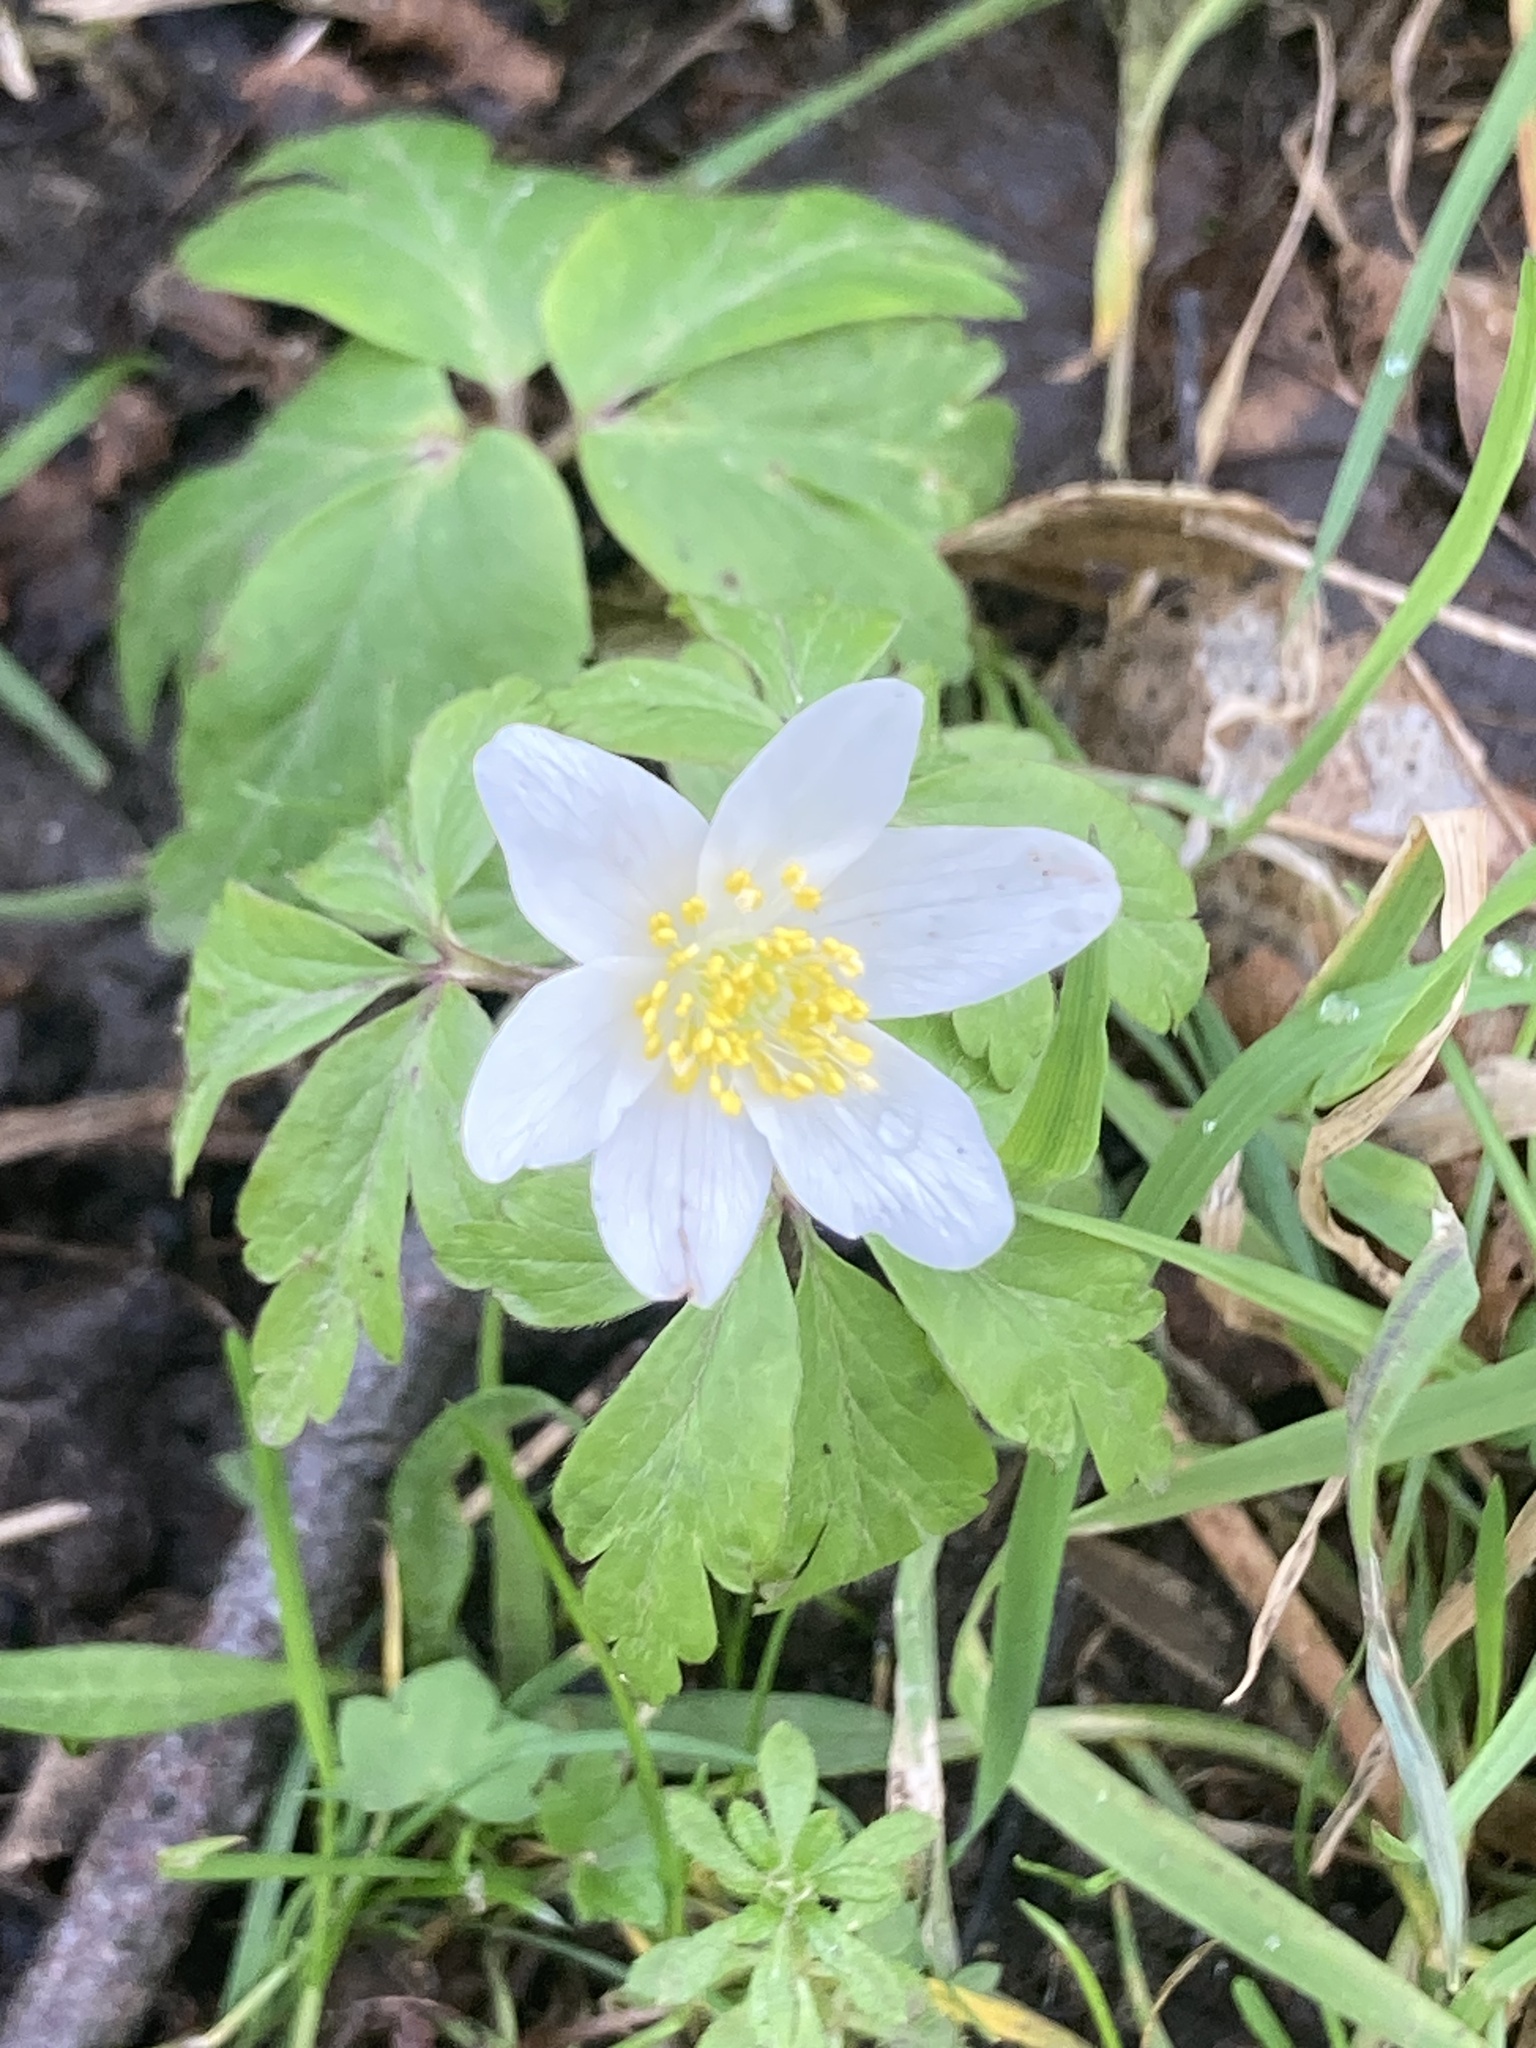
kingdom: Plantae
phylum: Tracheophyta
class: Magnoliopsida
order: Ranunculales
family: Ranunculaceae
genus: Anemone
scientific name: Anemone nemorosa
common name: Wood anemone
